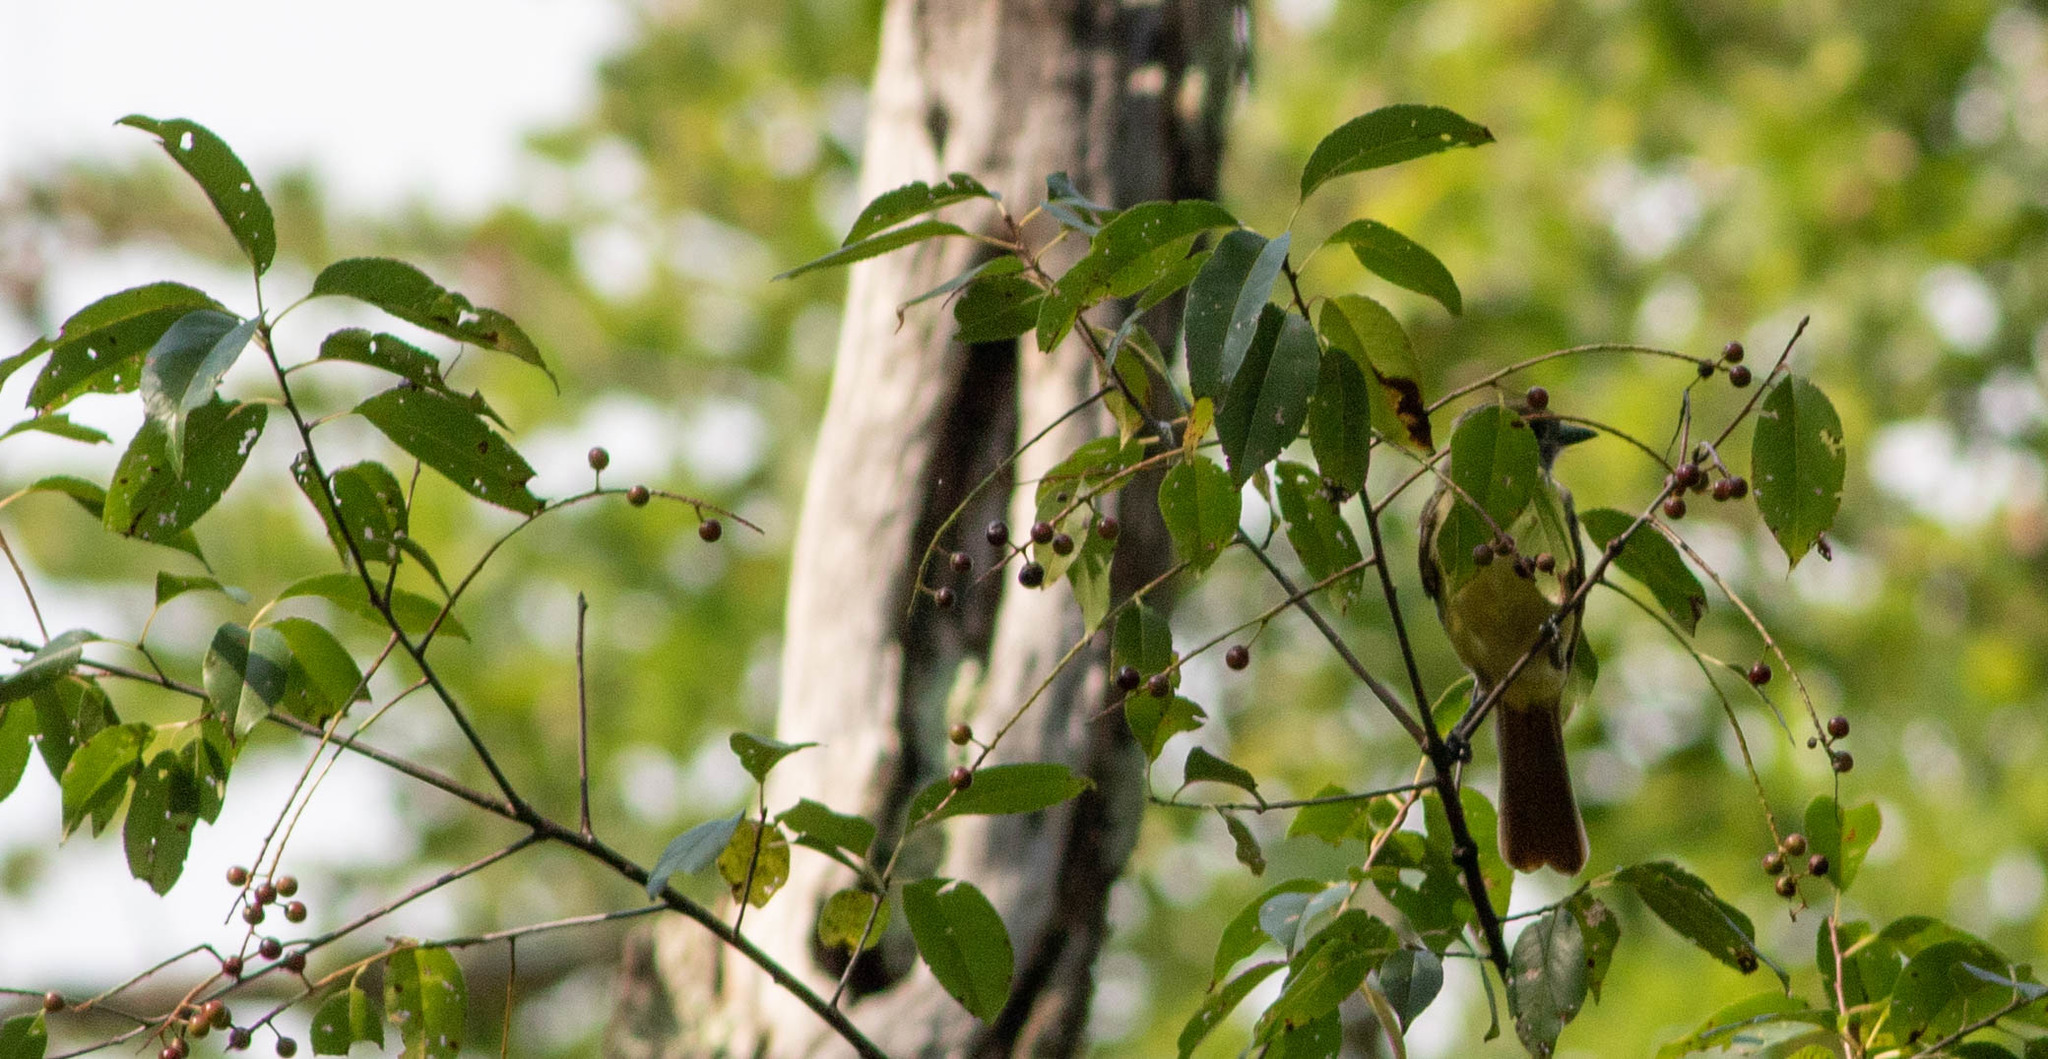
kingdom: Animalia
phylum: Chordata
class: Aves
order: Passeriformes
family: Tyrannidae
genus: Myiarchus
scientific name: Myiarchus crinitus
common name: Great crested flycatcher
